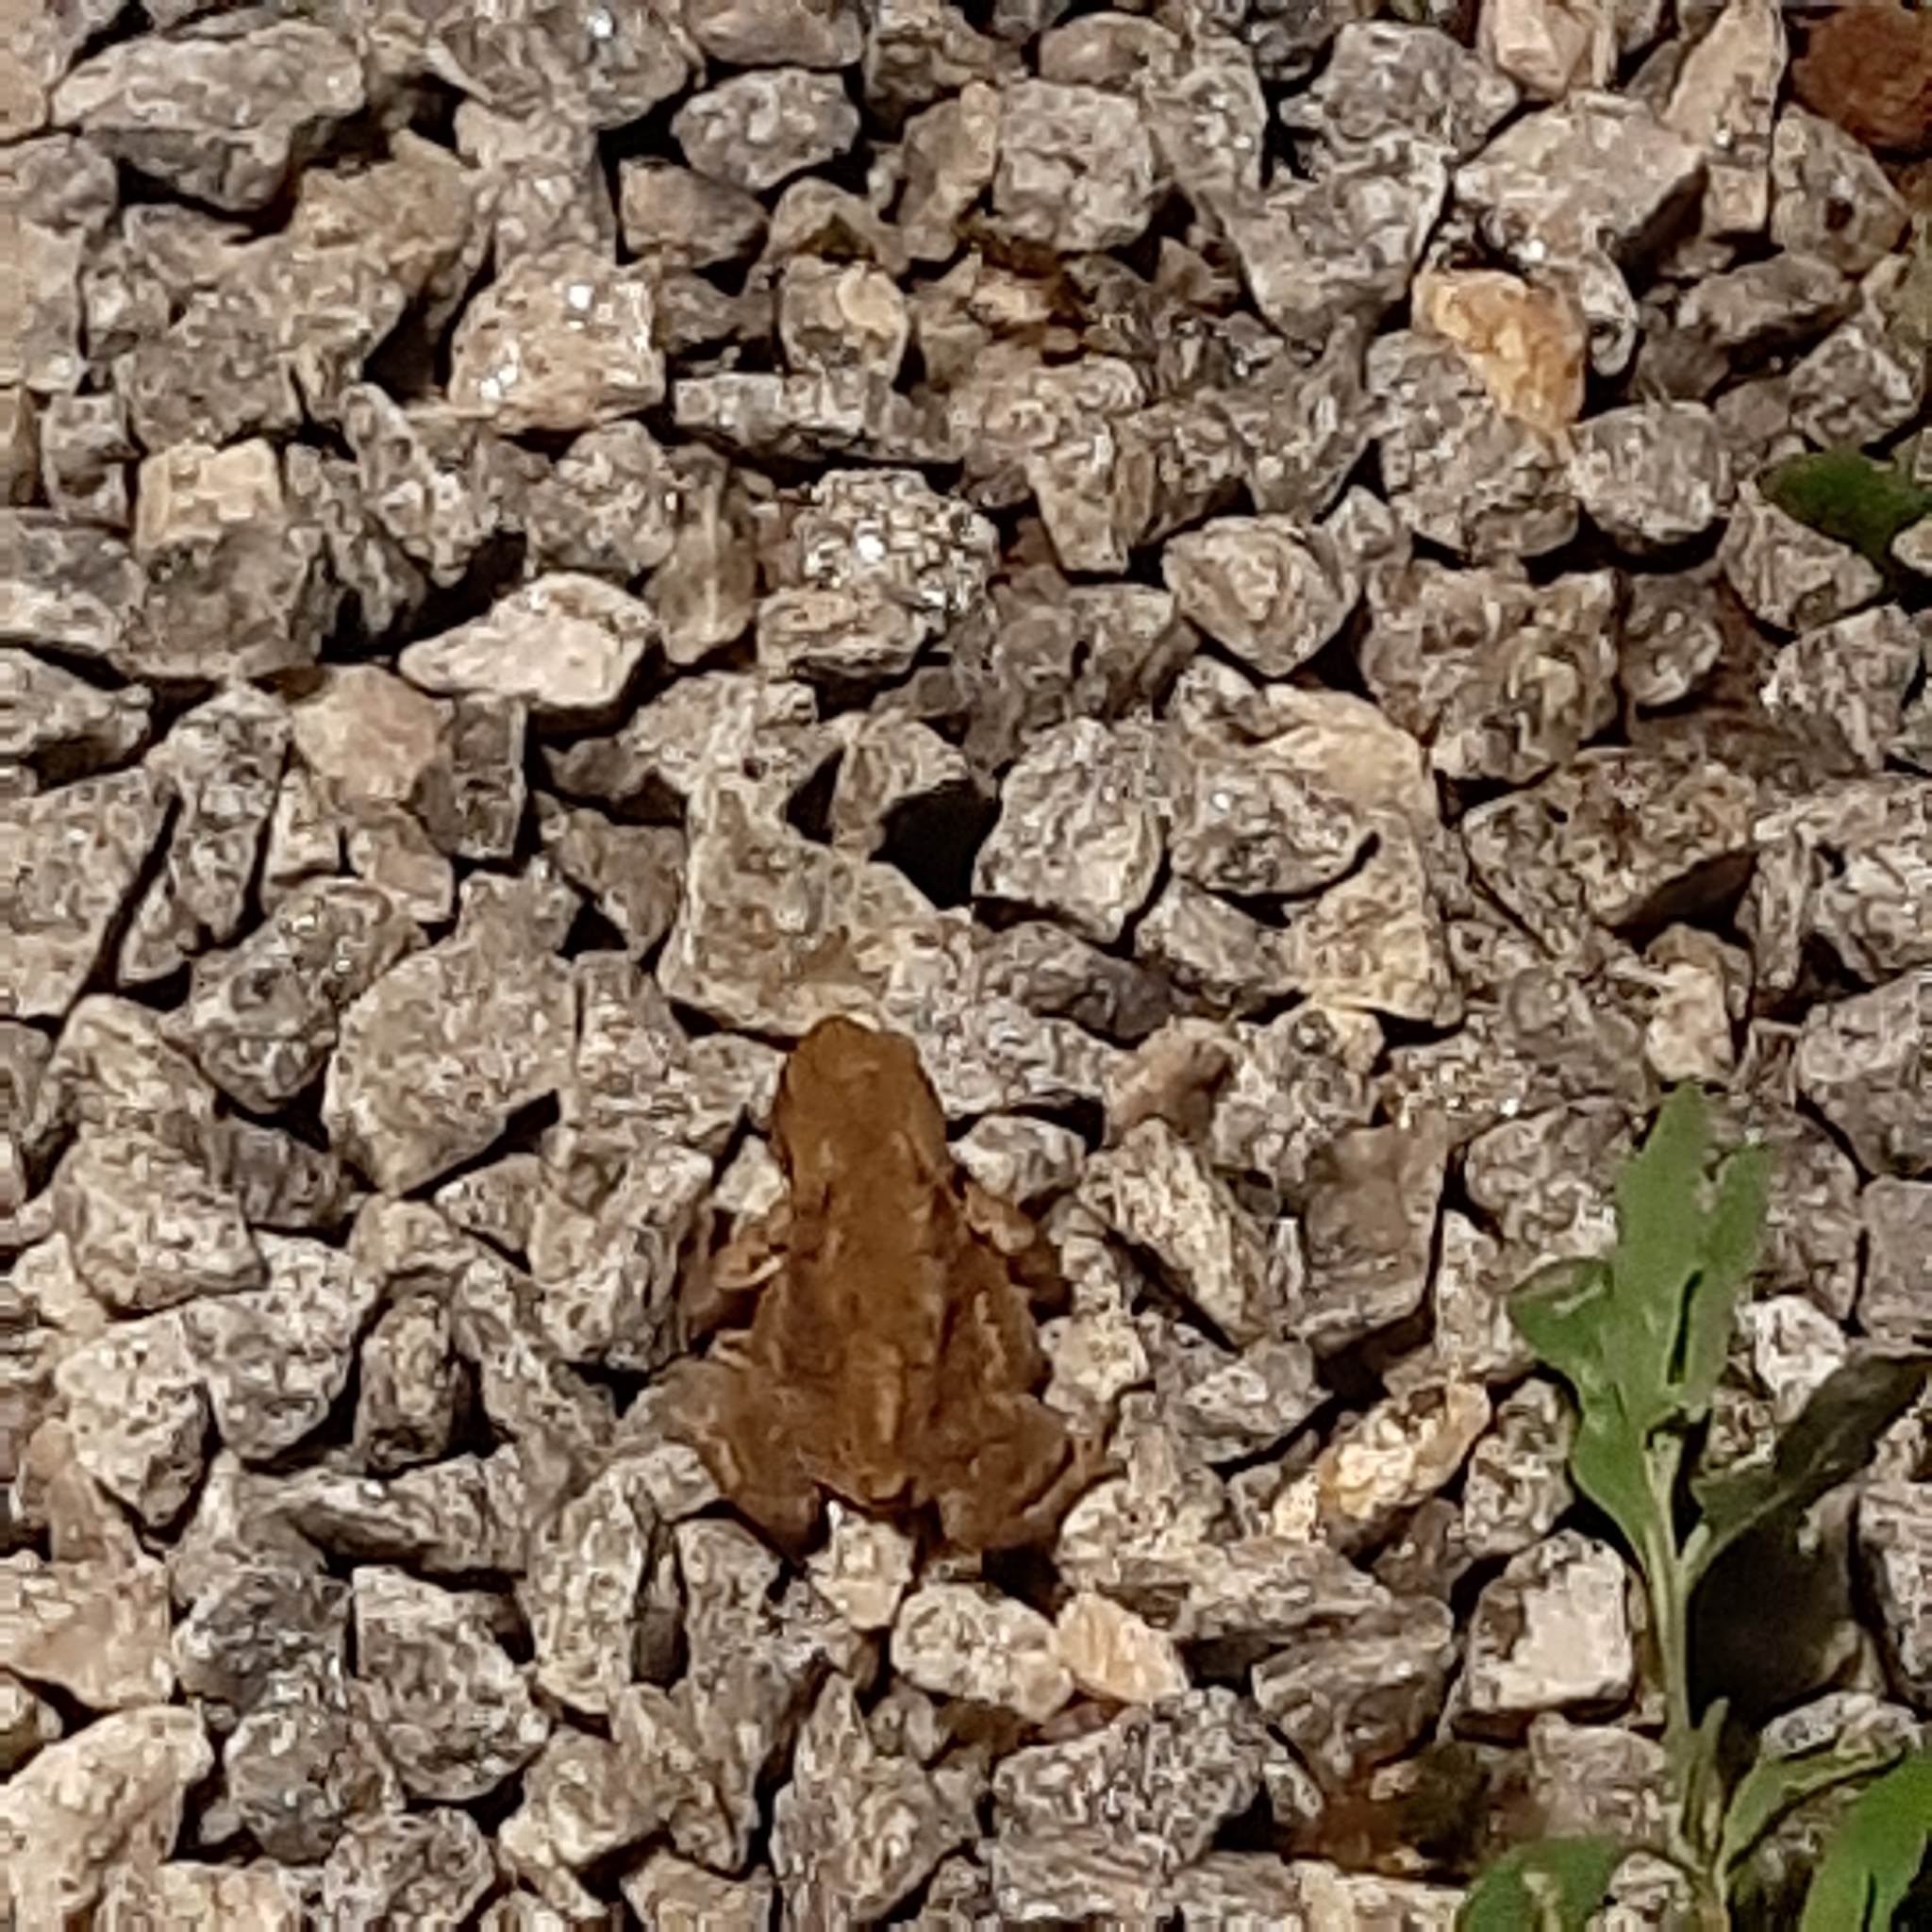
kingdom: Animalia
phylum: Chordata
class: Amphibia
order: Anura
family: Bufonidae
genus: Bufo
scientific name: Bufo bufo
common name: Common toad
